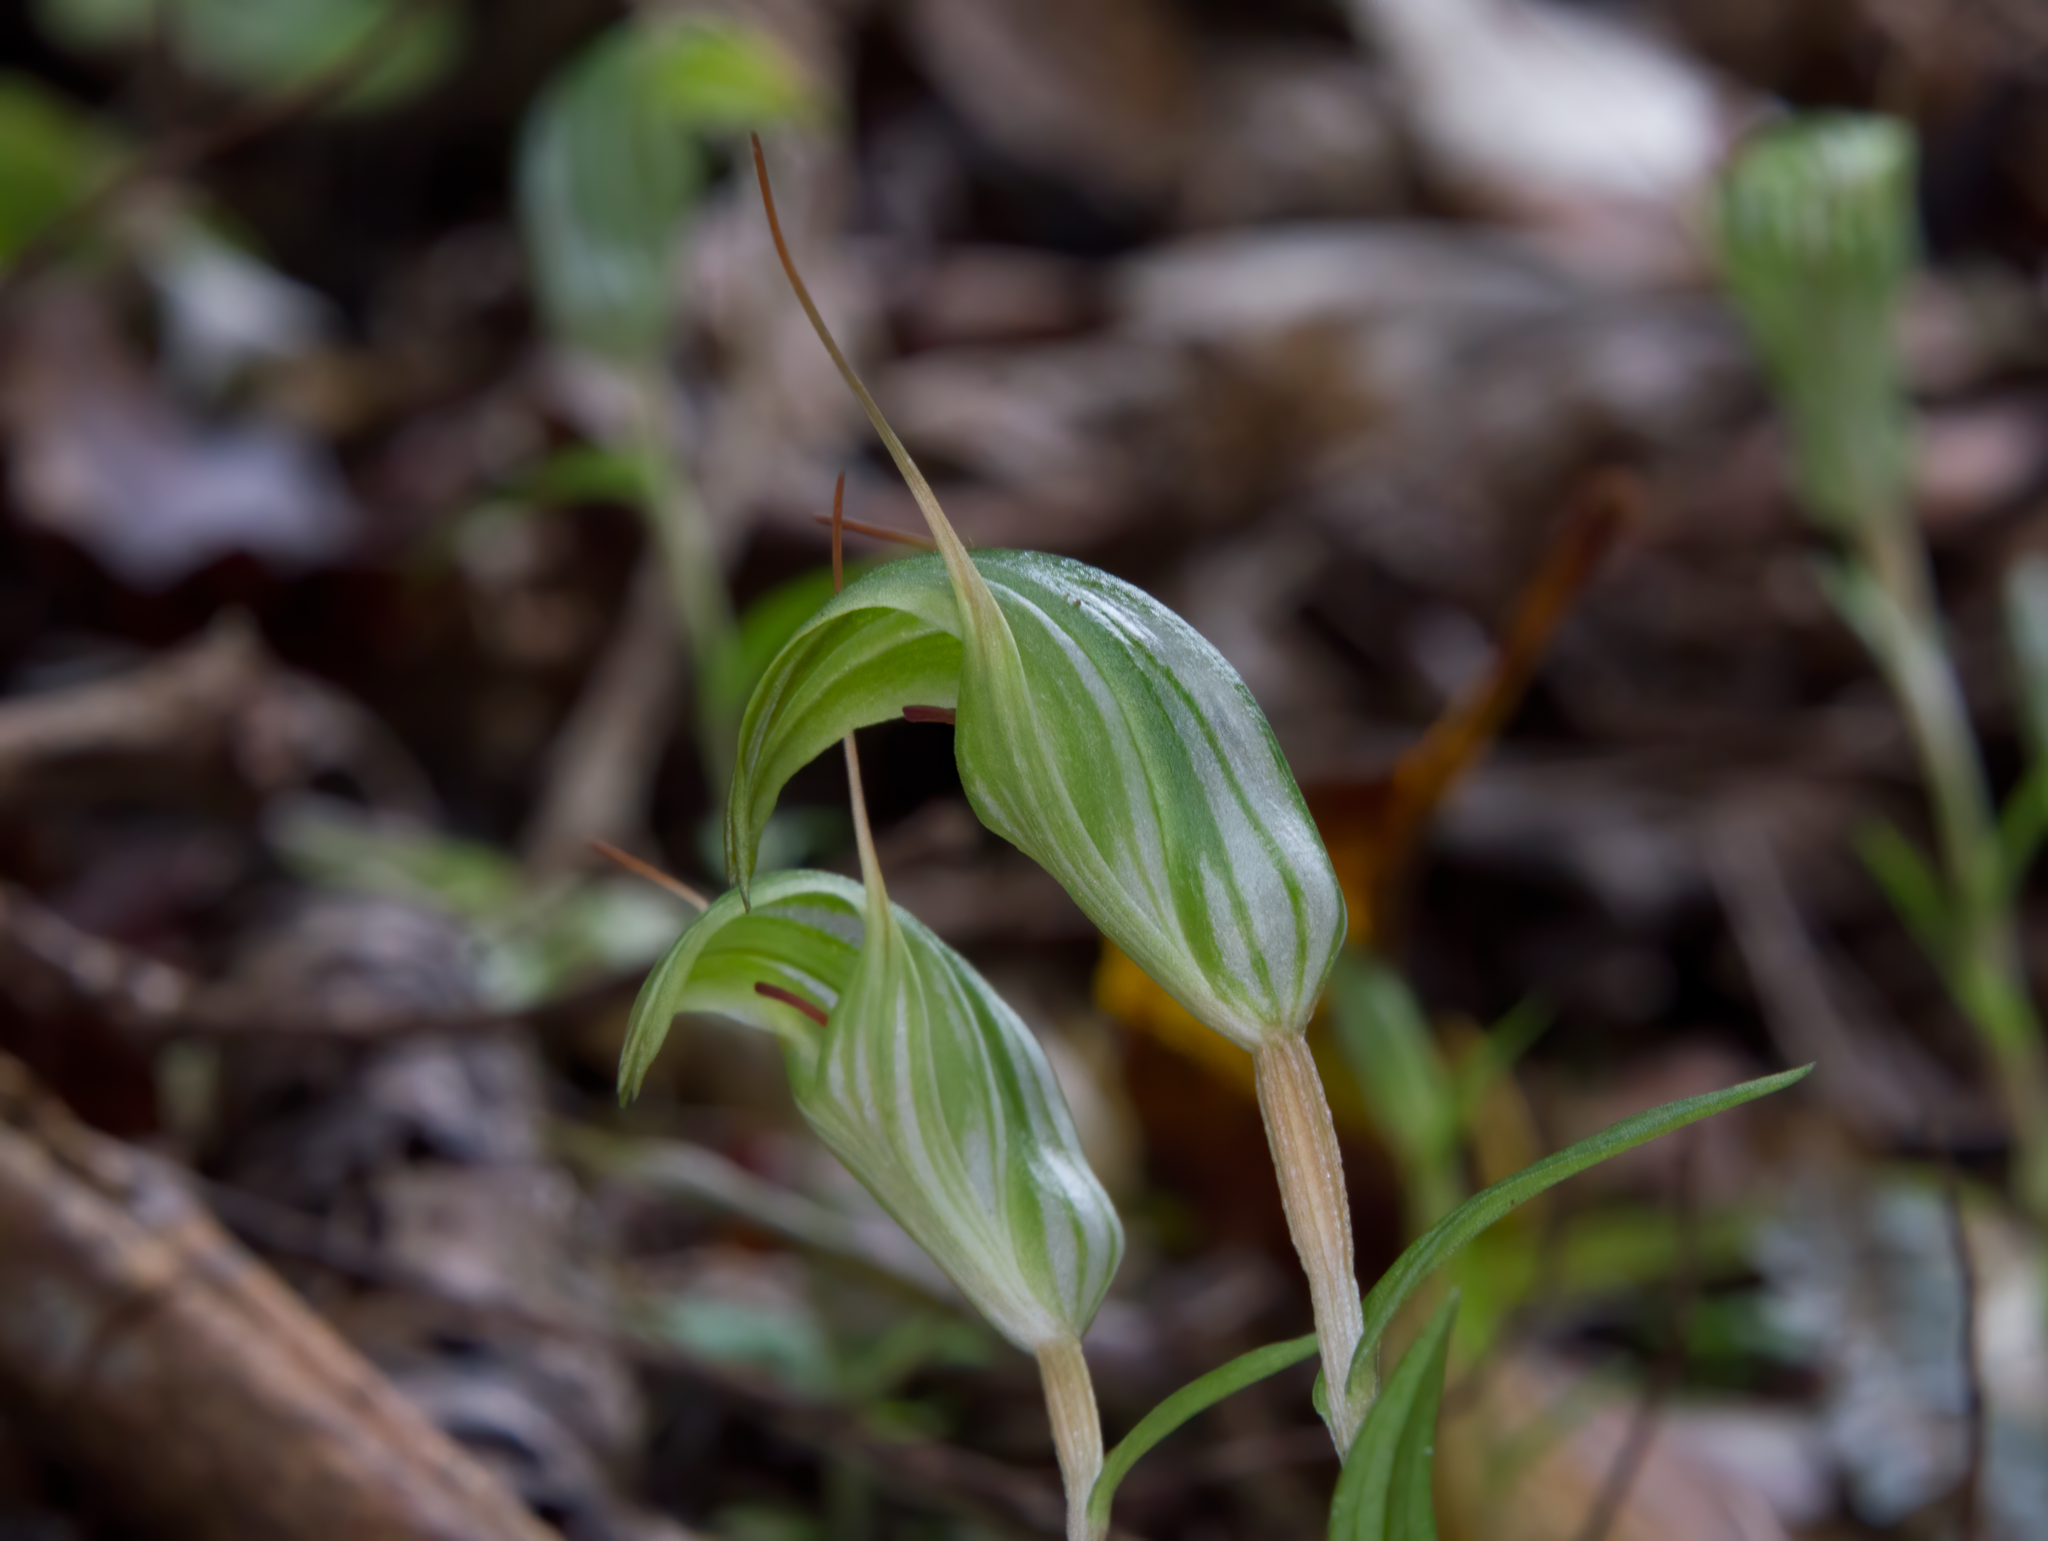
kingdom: Plantae
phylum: Tracheophyta
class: Liliopsida
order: Asparagales
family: Orchidaceae
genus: Pterostylis
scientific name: Pterostylis alobula
